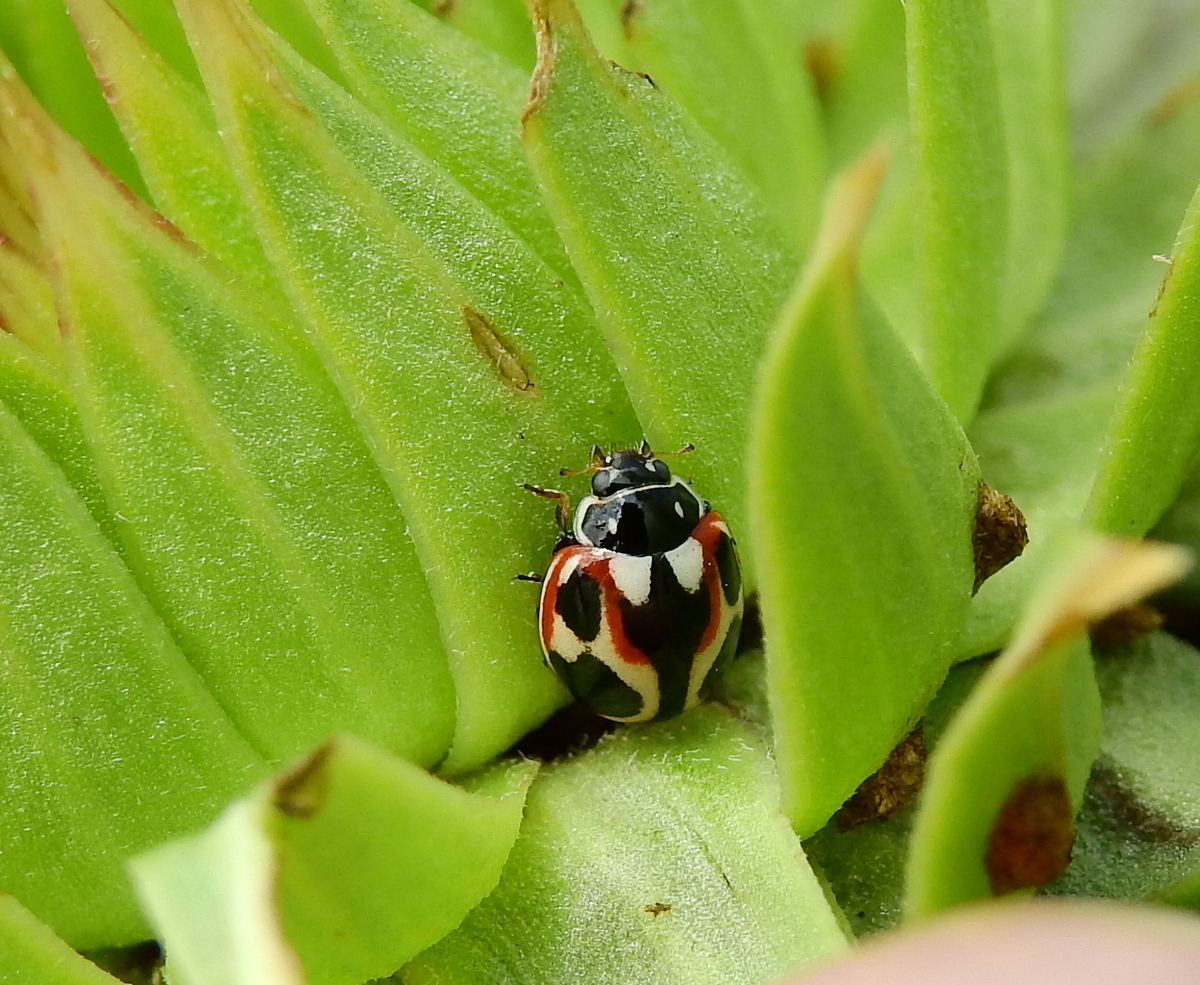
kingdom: Animalia
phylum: Arthropoda
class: Insecta
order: Coleoptera
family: Coccinellidae
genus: Cycloneda
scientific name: Cycloneda ancoralis
